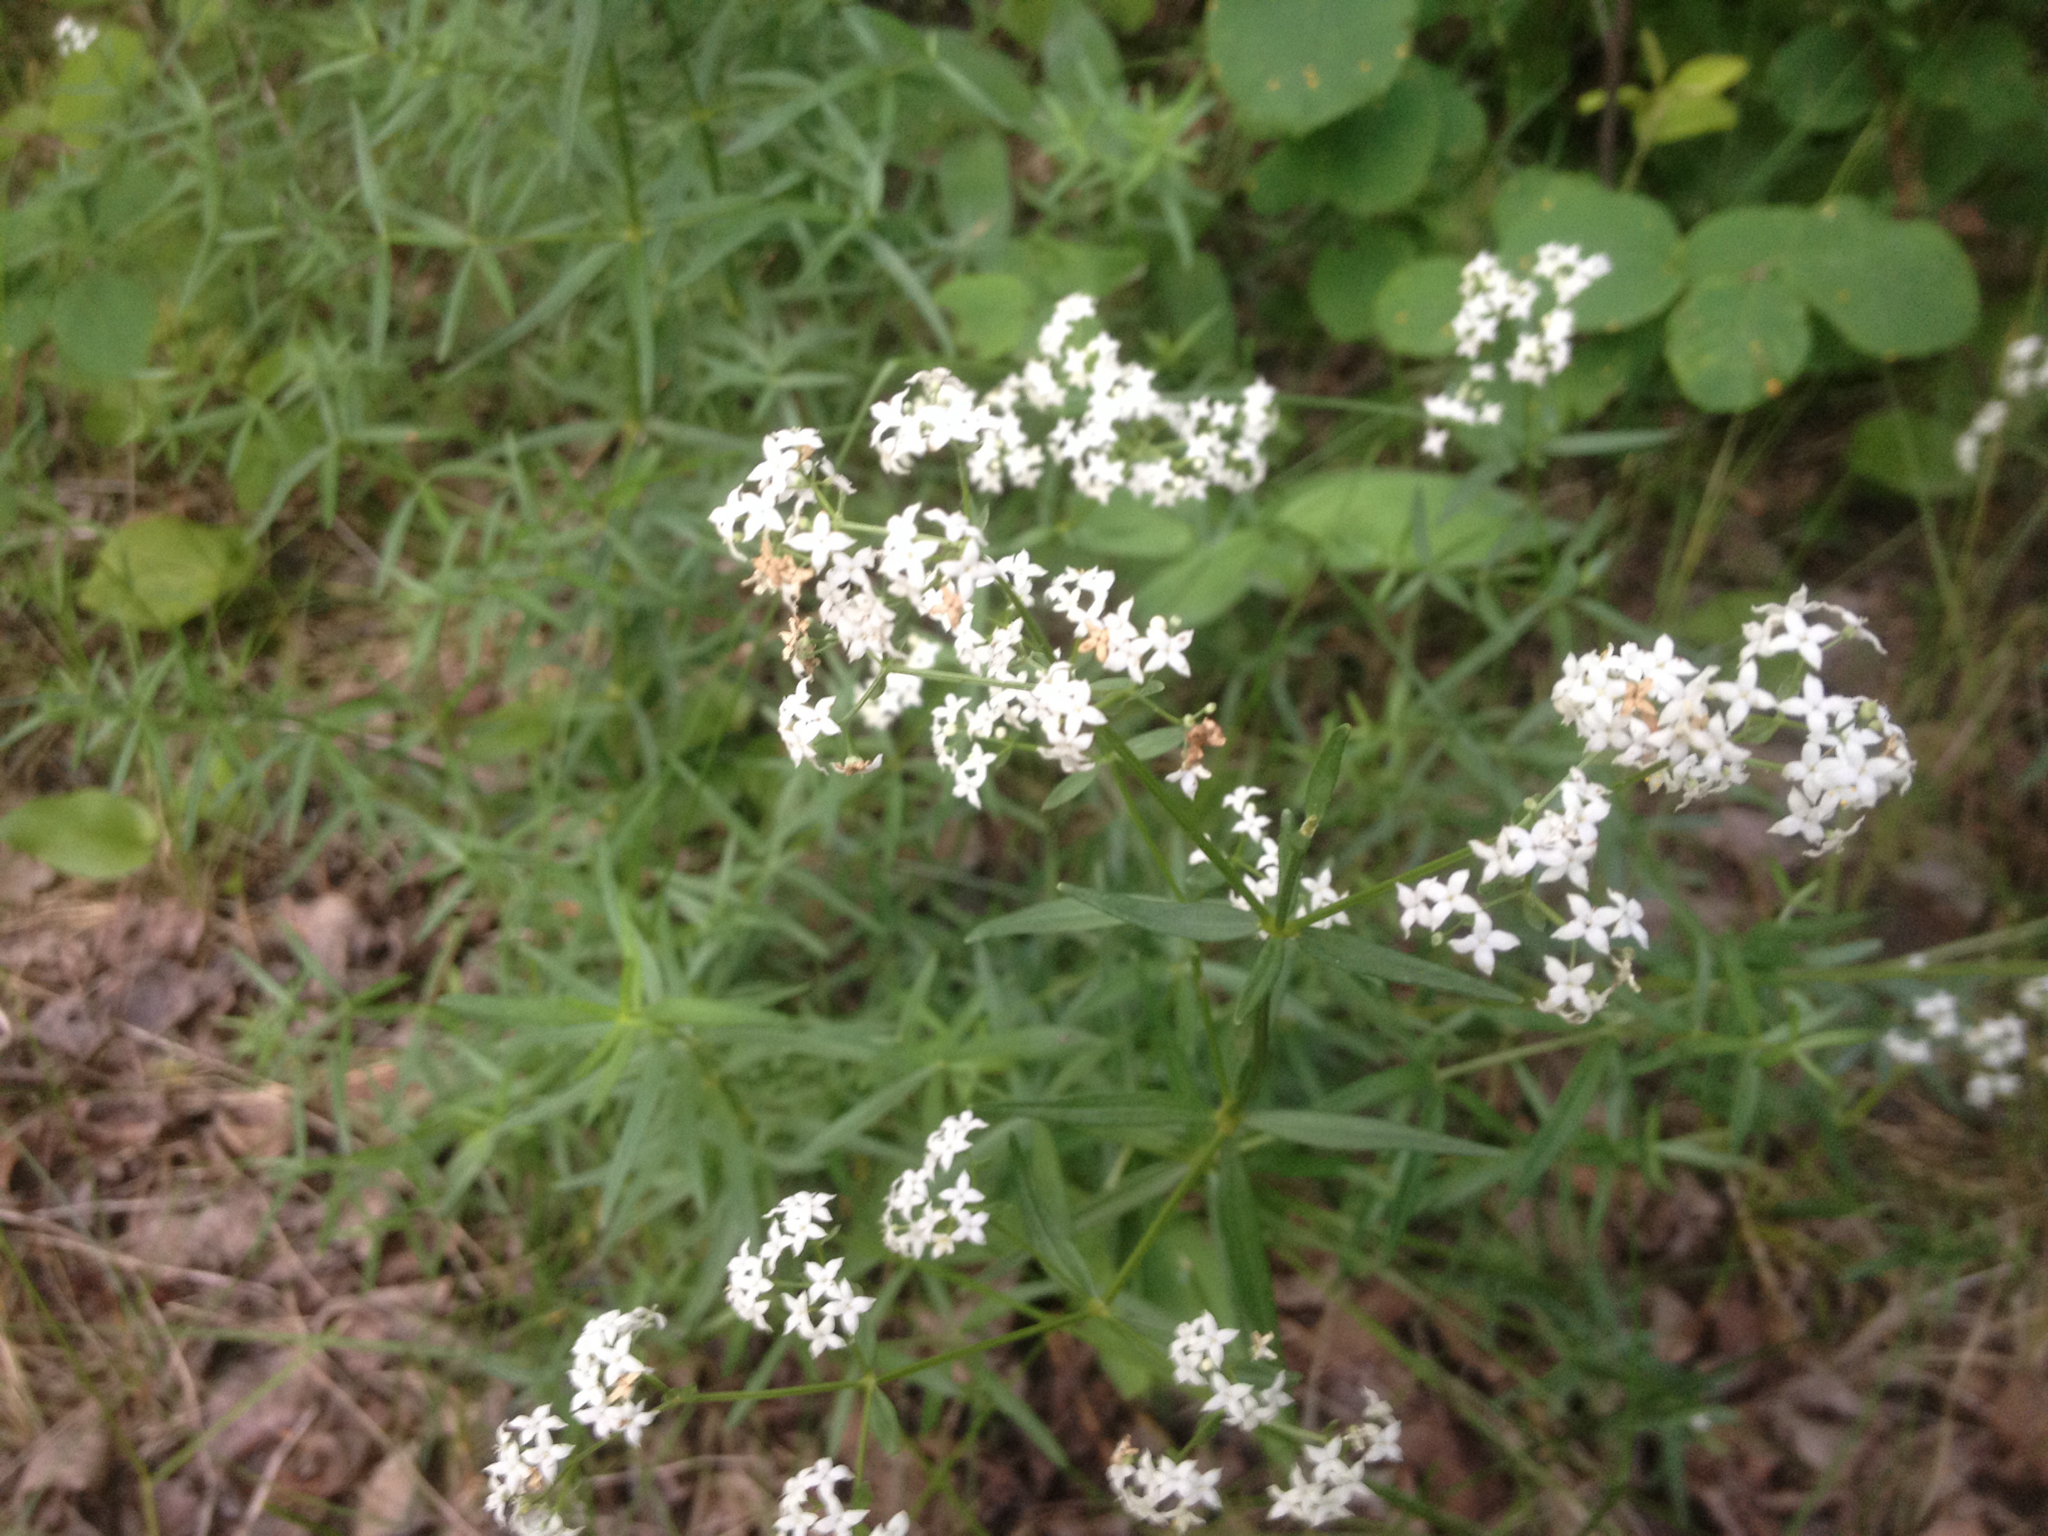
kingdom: Plantae
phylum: Tracheophyta
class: Magnoliopsida
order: Gentianales
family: Rubiaceae
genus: Galium
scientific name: Galium boreale
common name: Northern bedstraw
